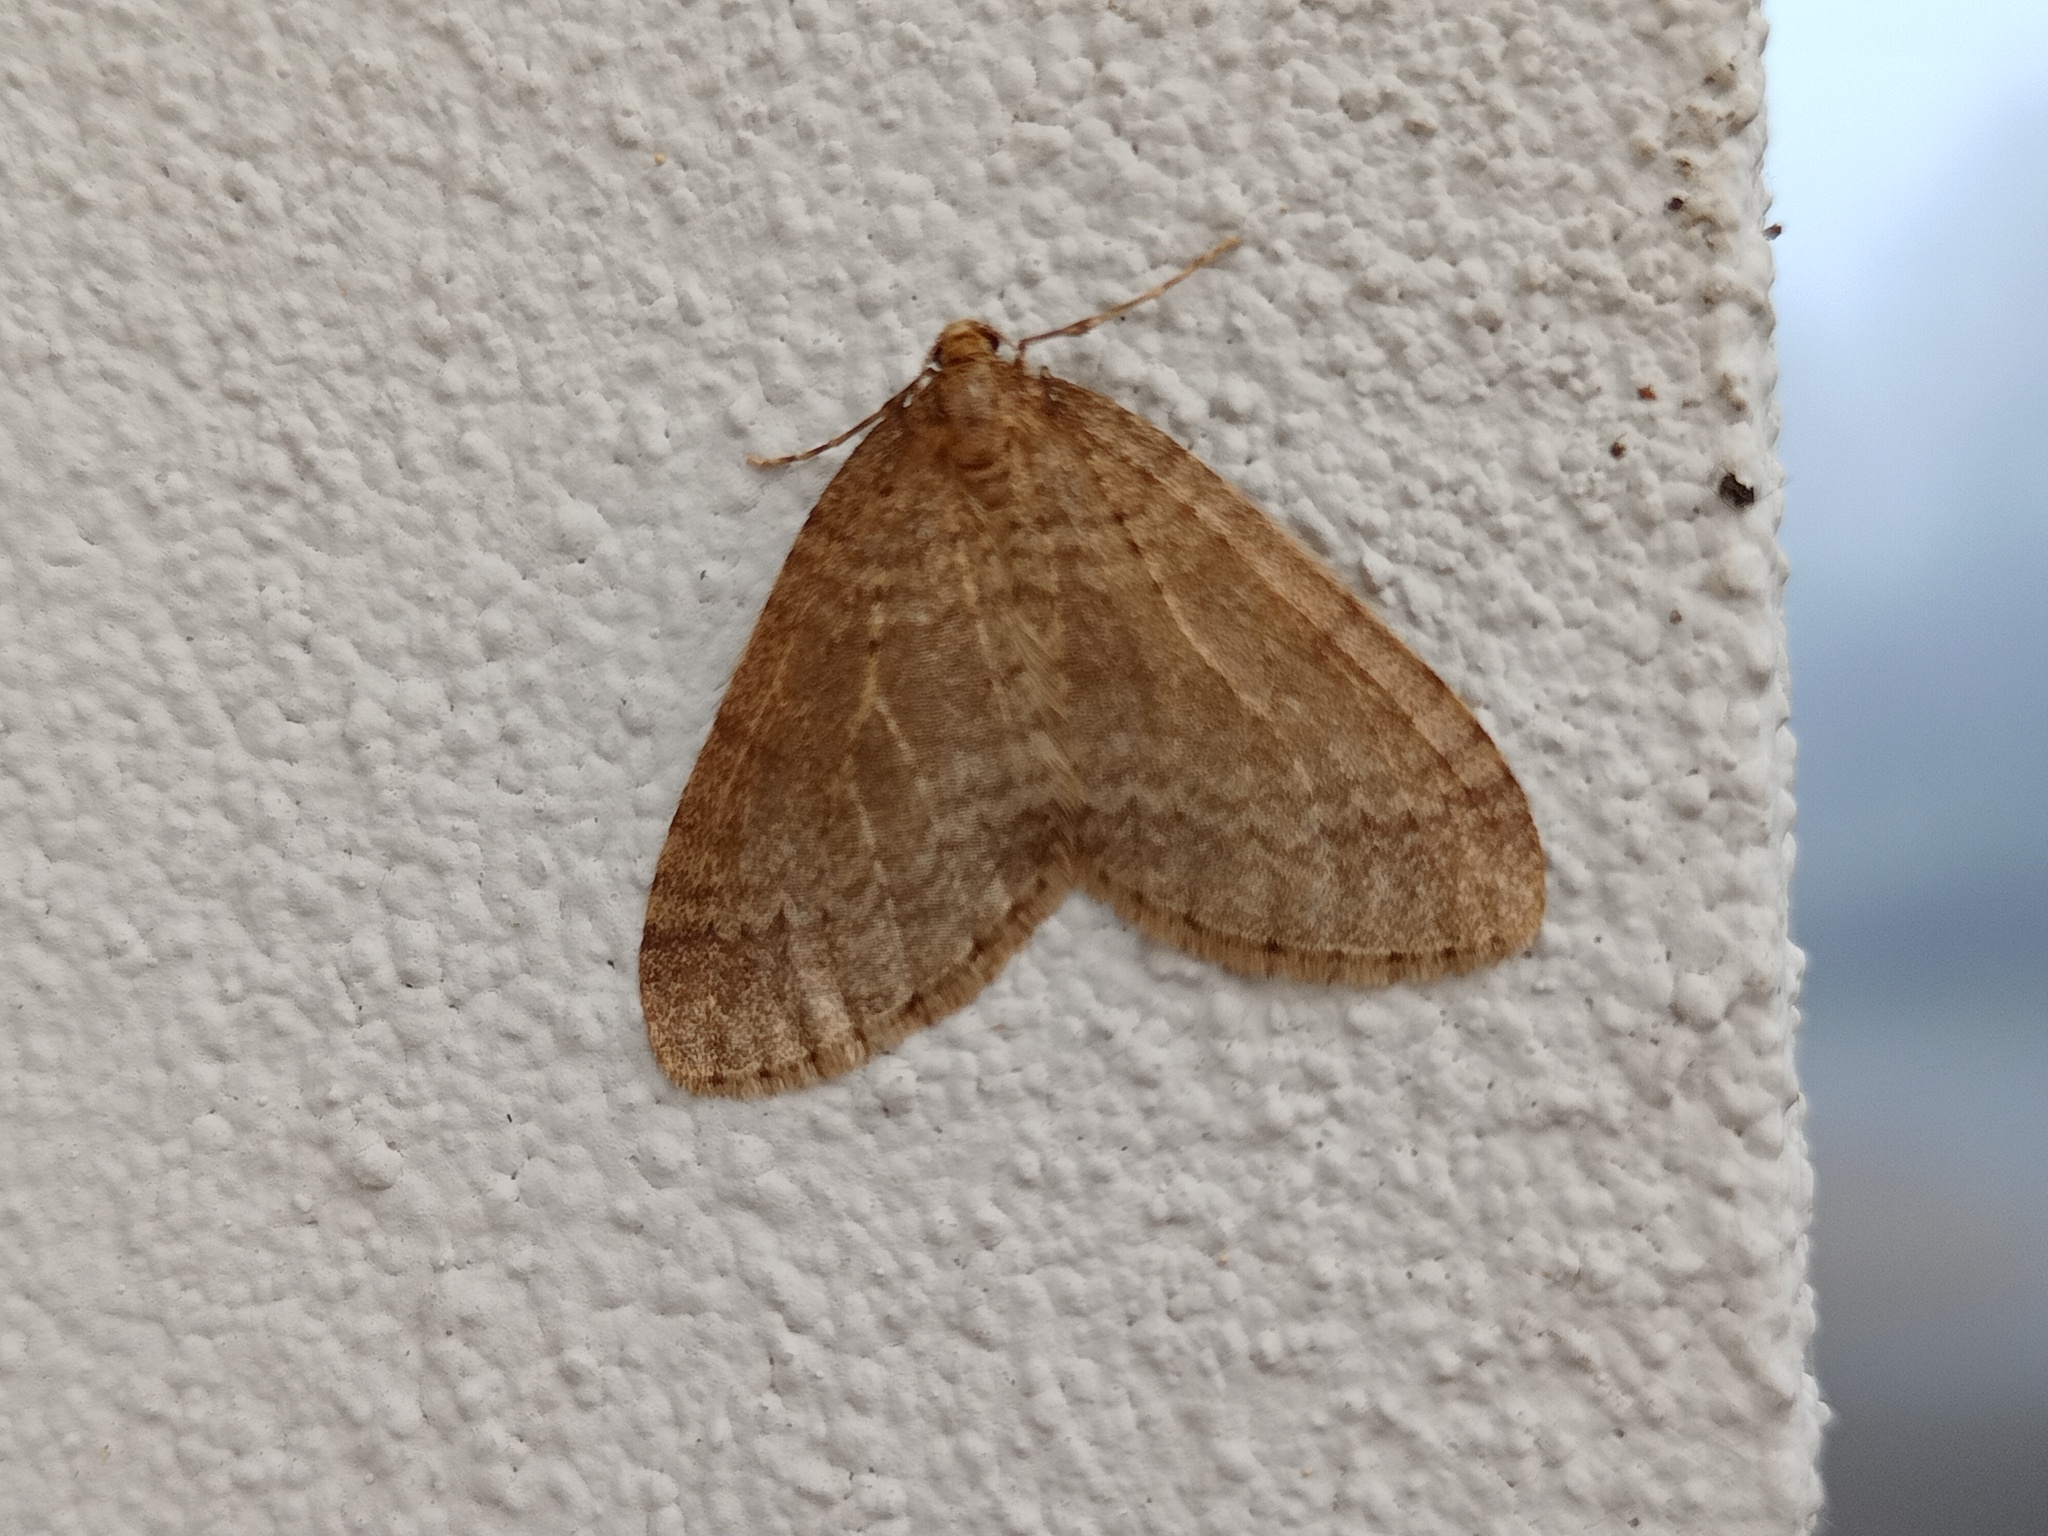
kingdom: Animalia
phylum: Arthropoda
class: Insecta
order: Lepidoptera
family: Geometridae
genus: Operophtera
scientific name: Operophtera brumata
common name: Winter moth
